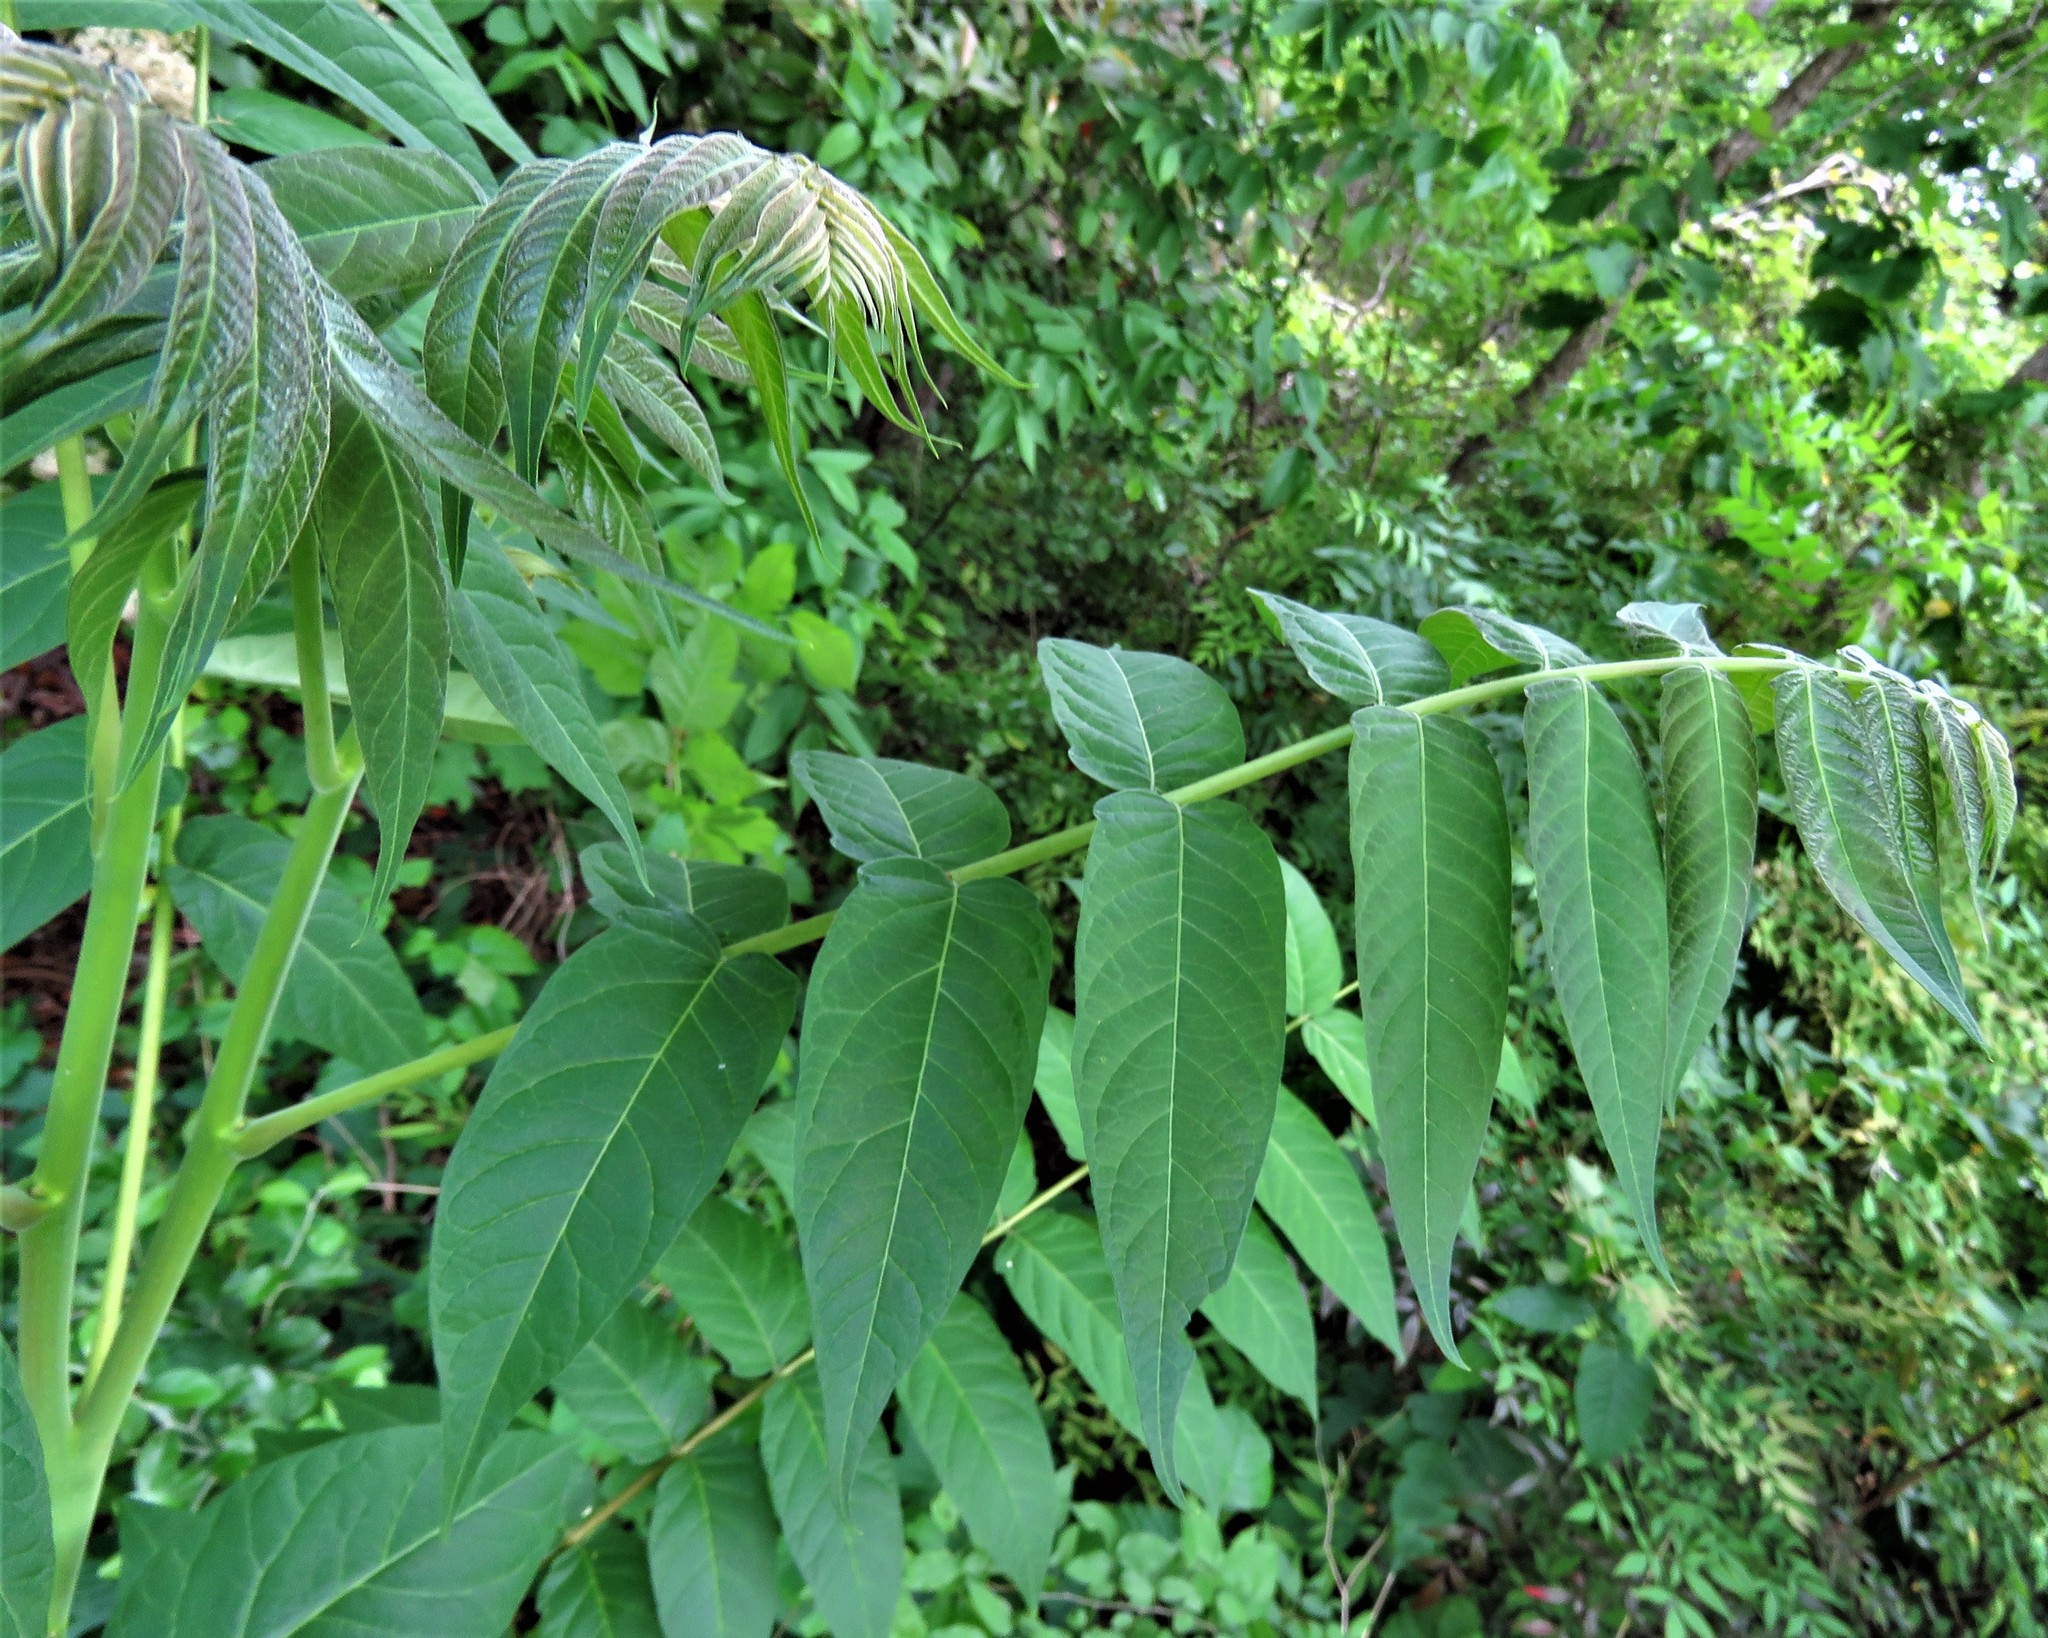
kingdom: Plantae
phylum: Tracheophyta
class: Magnoliopsida
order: Sapindales
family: Simaroubaceae
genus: Ailanthus
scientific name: Ailanthus altissima
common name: Tree-of-heaven
